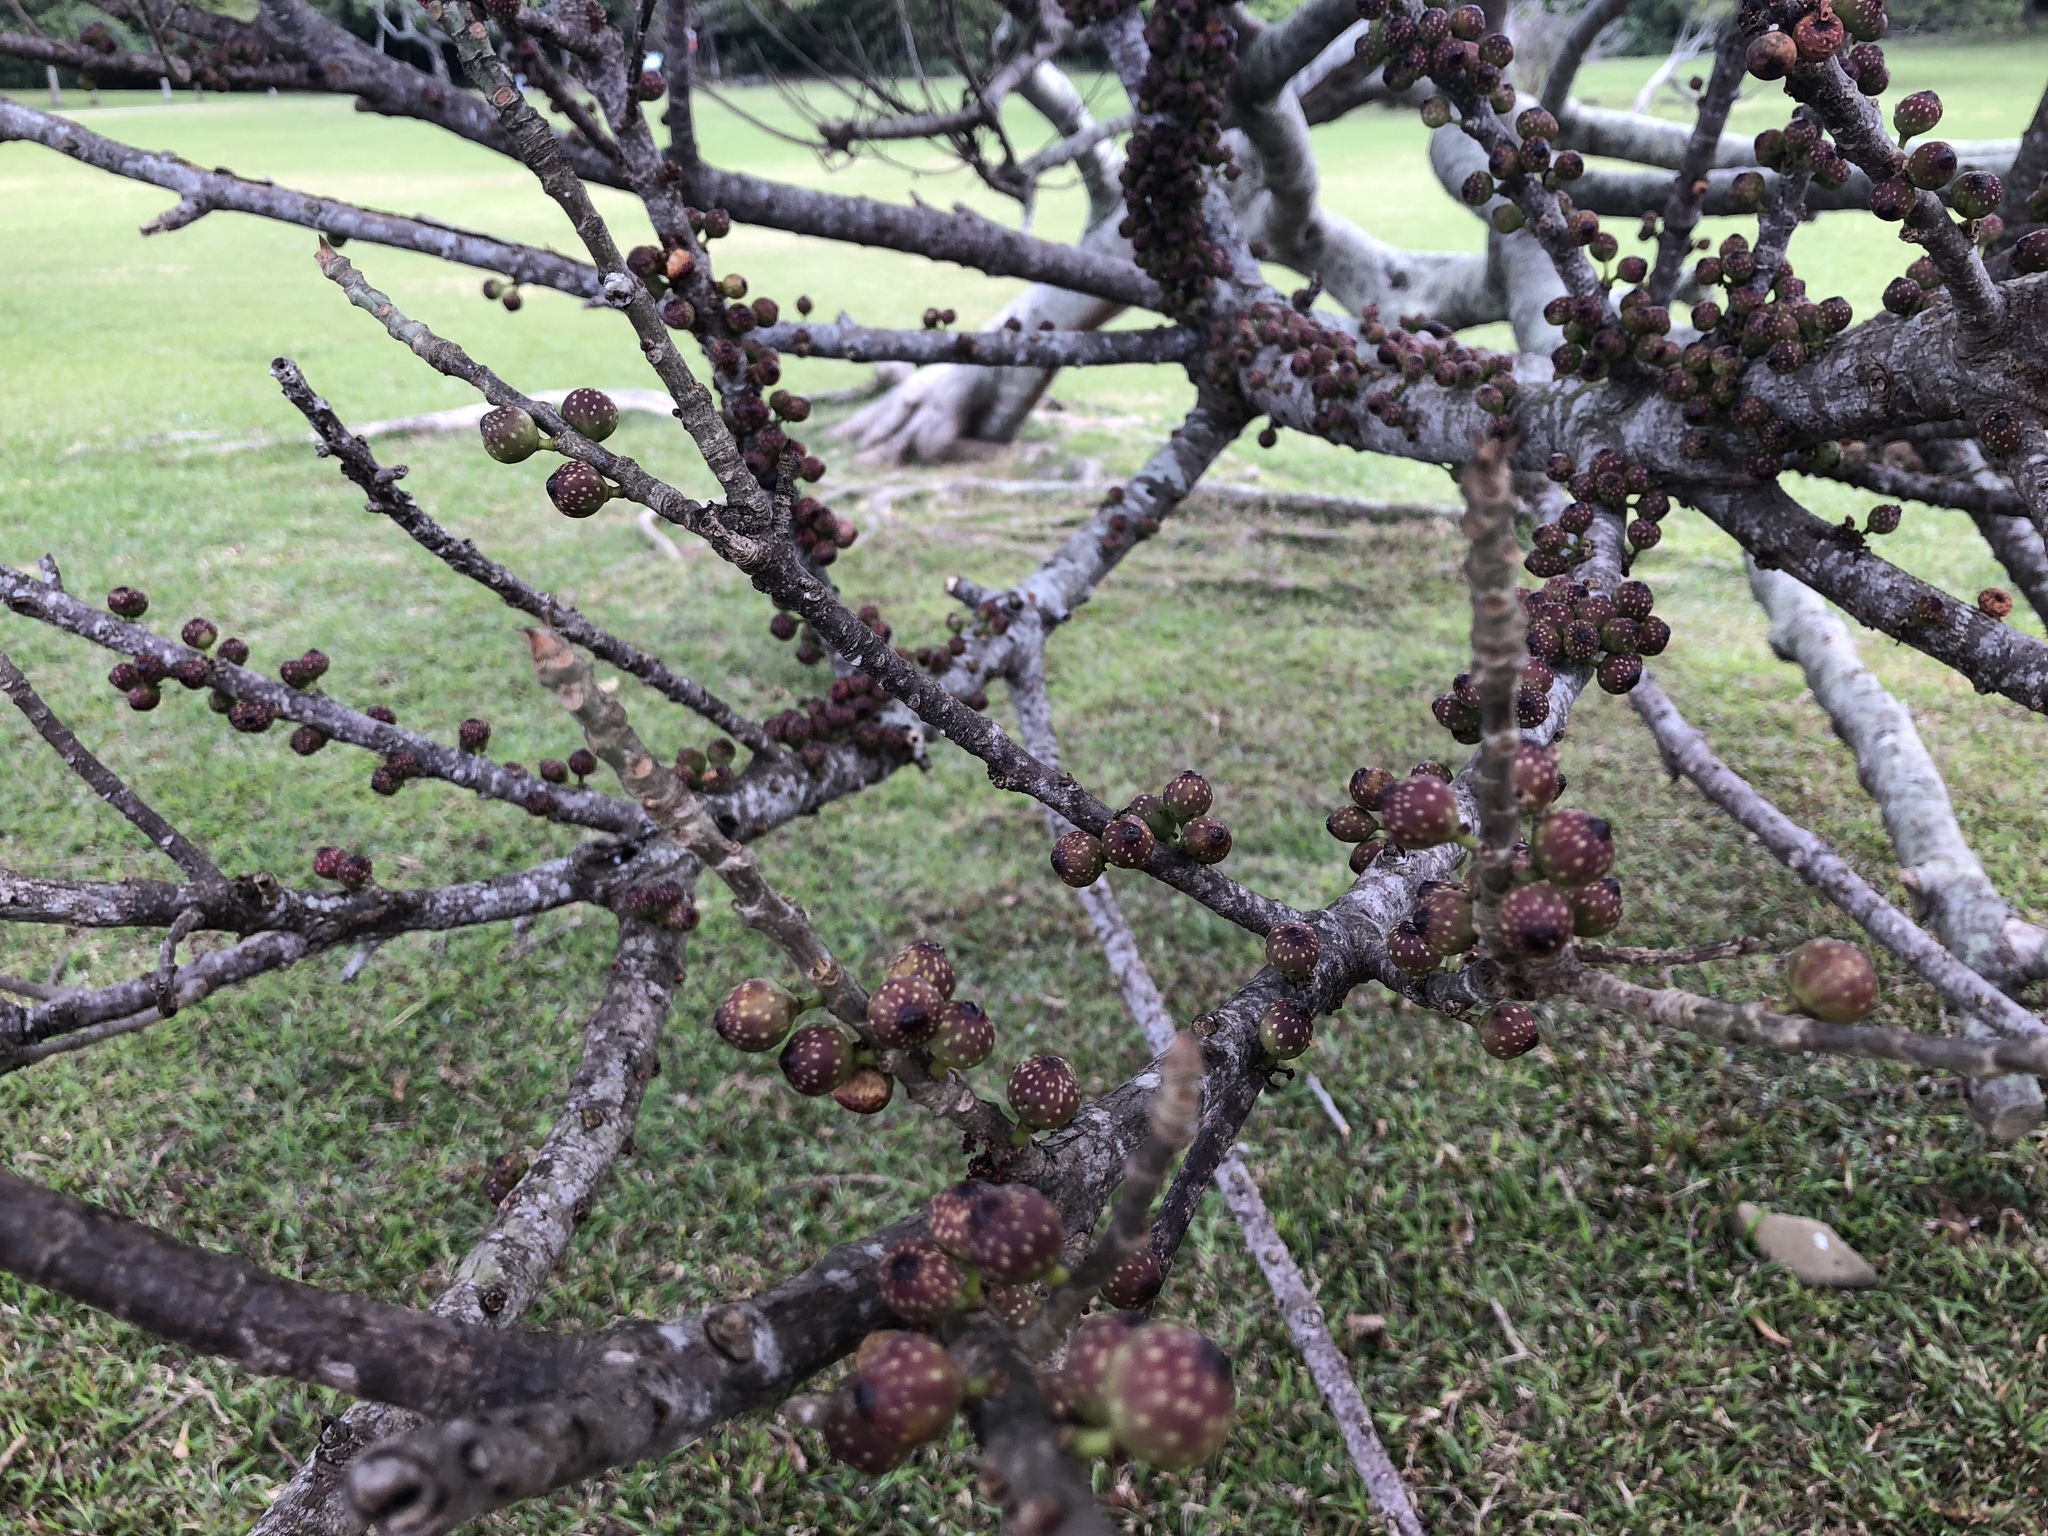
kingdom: Plantae
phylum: Tracheophyta
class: Magnoliopsida
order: Rosales
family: Moraceae
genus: Ficus
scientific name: Ficus subpisocarpa
